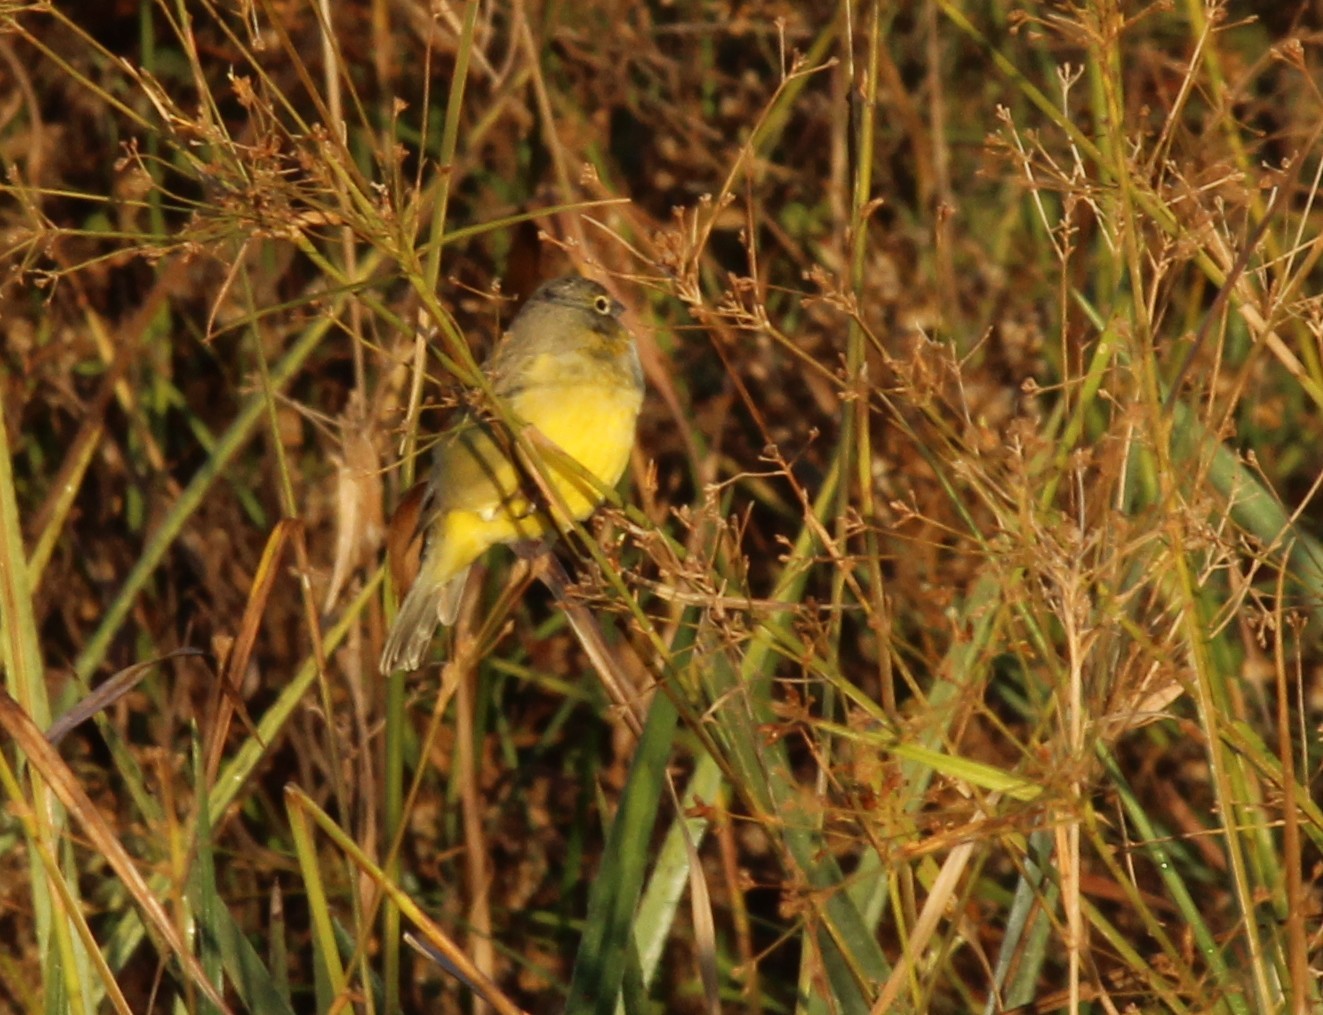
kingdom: Animalia
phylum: Chordata
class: Aves
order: Passeriformes
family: Thraupidae
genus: Sicalis
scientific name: Sicalis luteola
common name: Grassland yellow-finch
